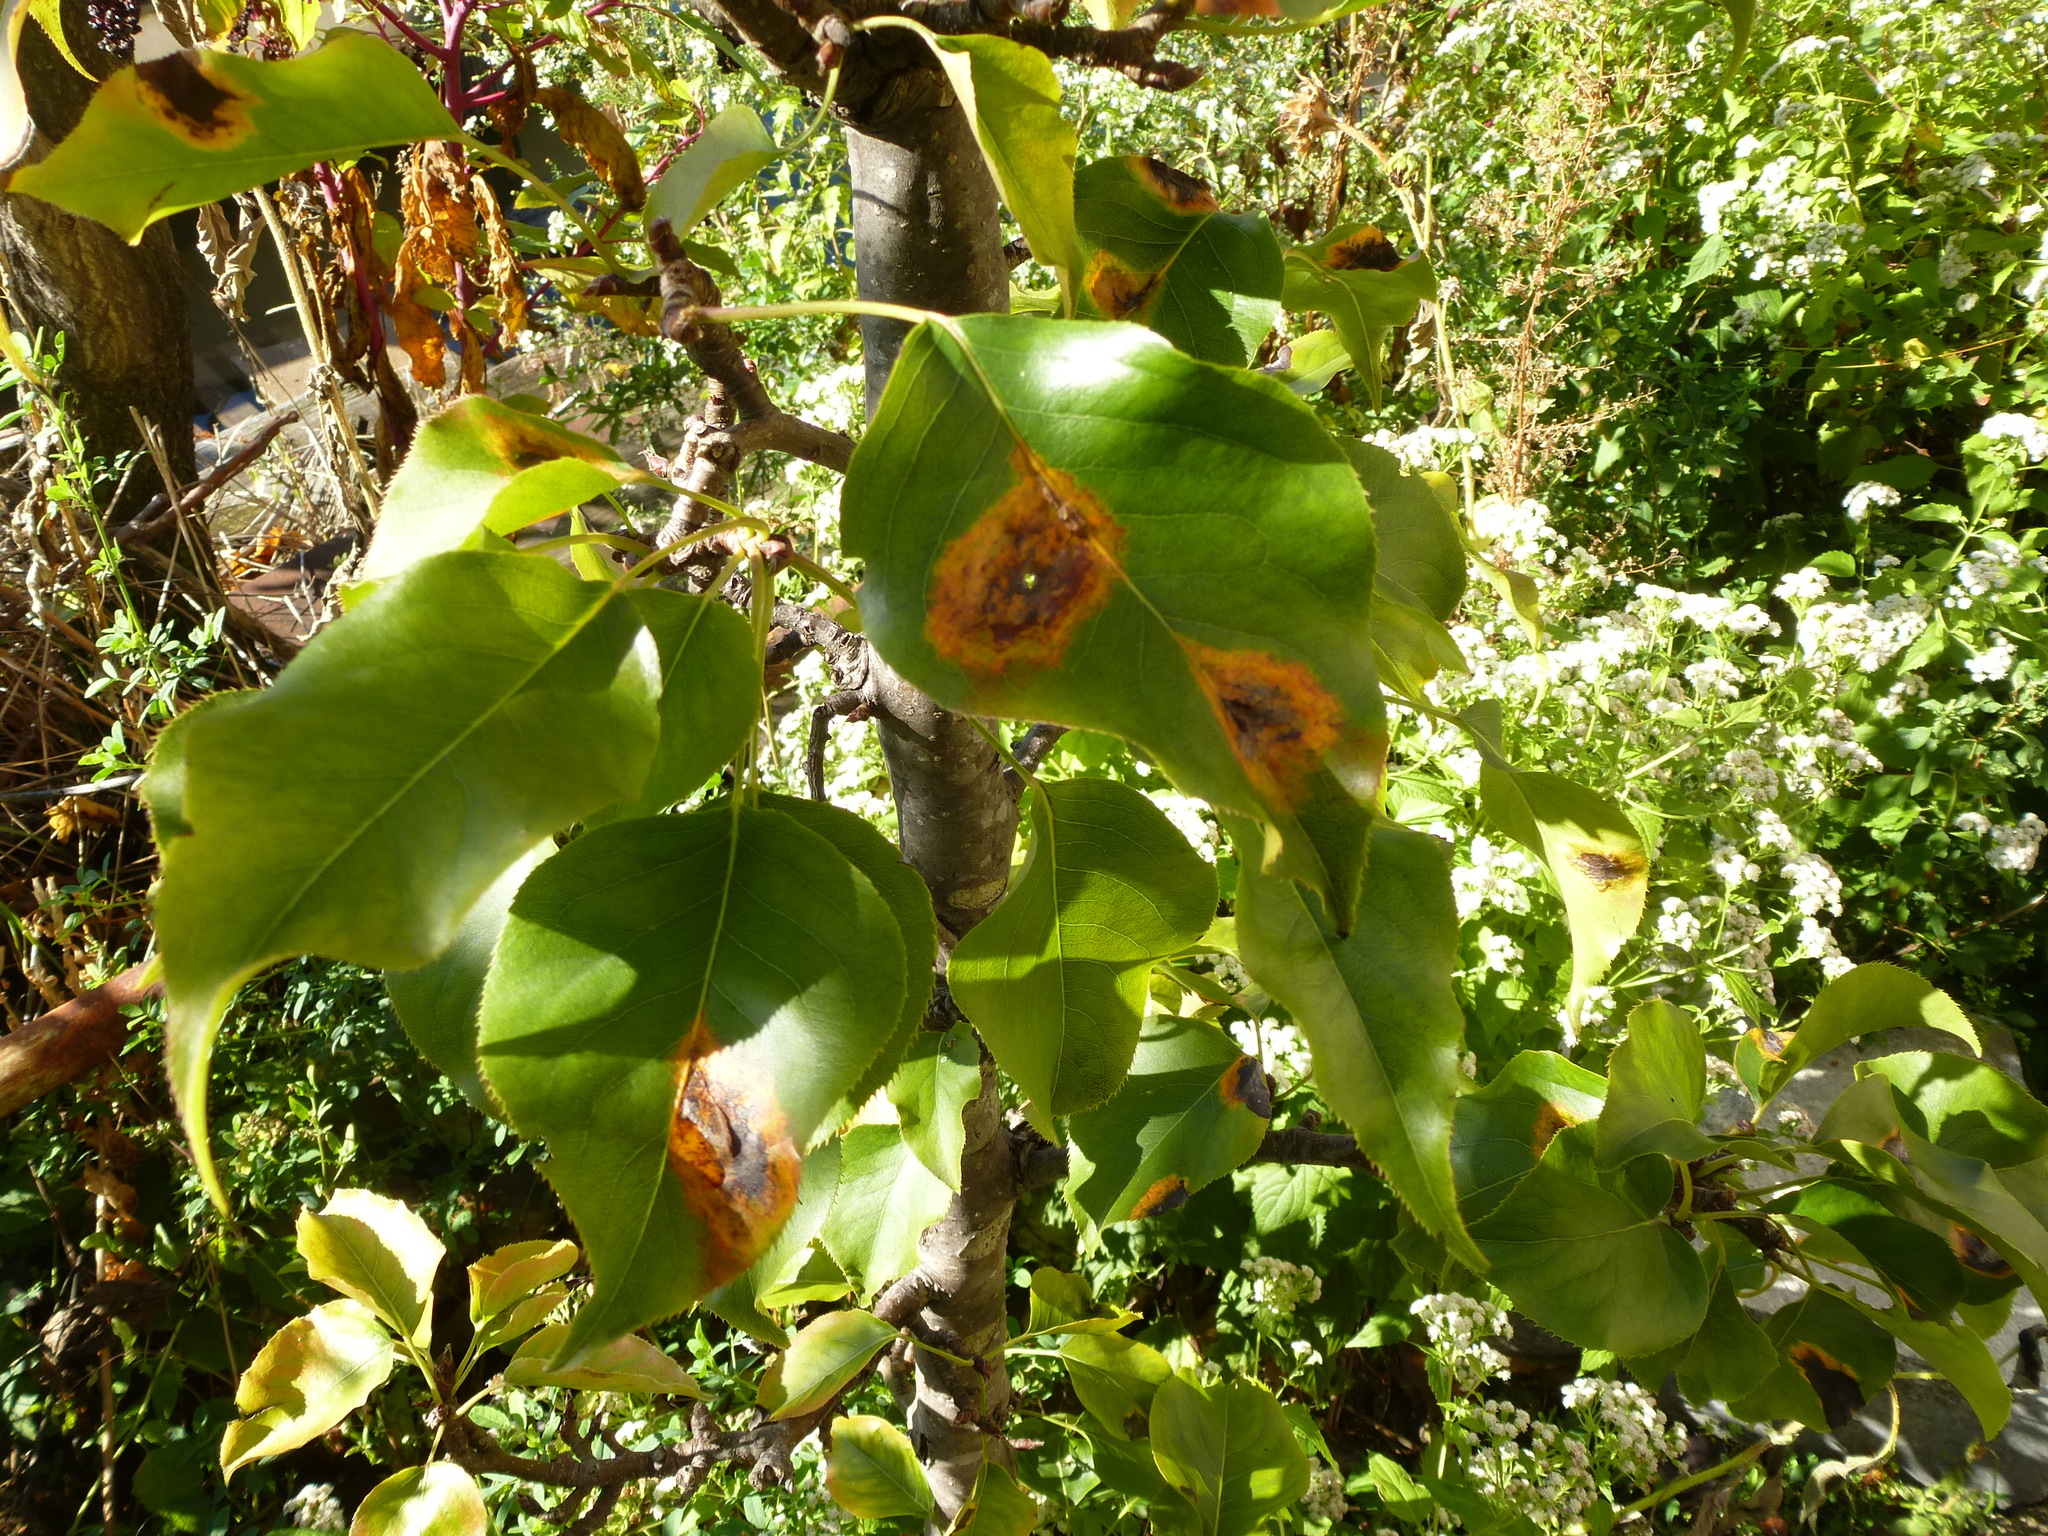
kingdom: Fungi
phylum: Basidiomycota
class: Pucciniomycetes
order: Pucciniales
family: Gymnosporangiaceae
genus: Gymnosporangium
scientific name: Gymnosporangium sabinae
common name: Pear trellis rust fungus
